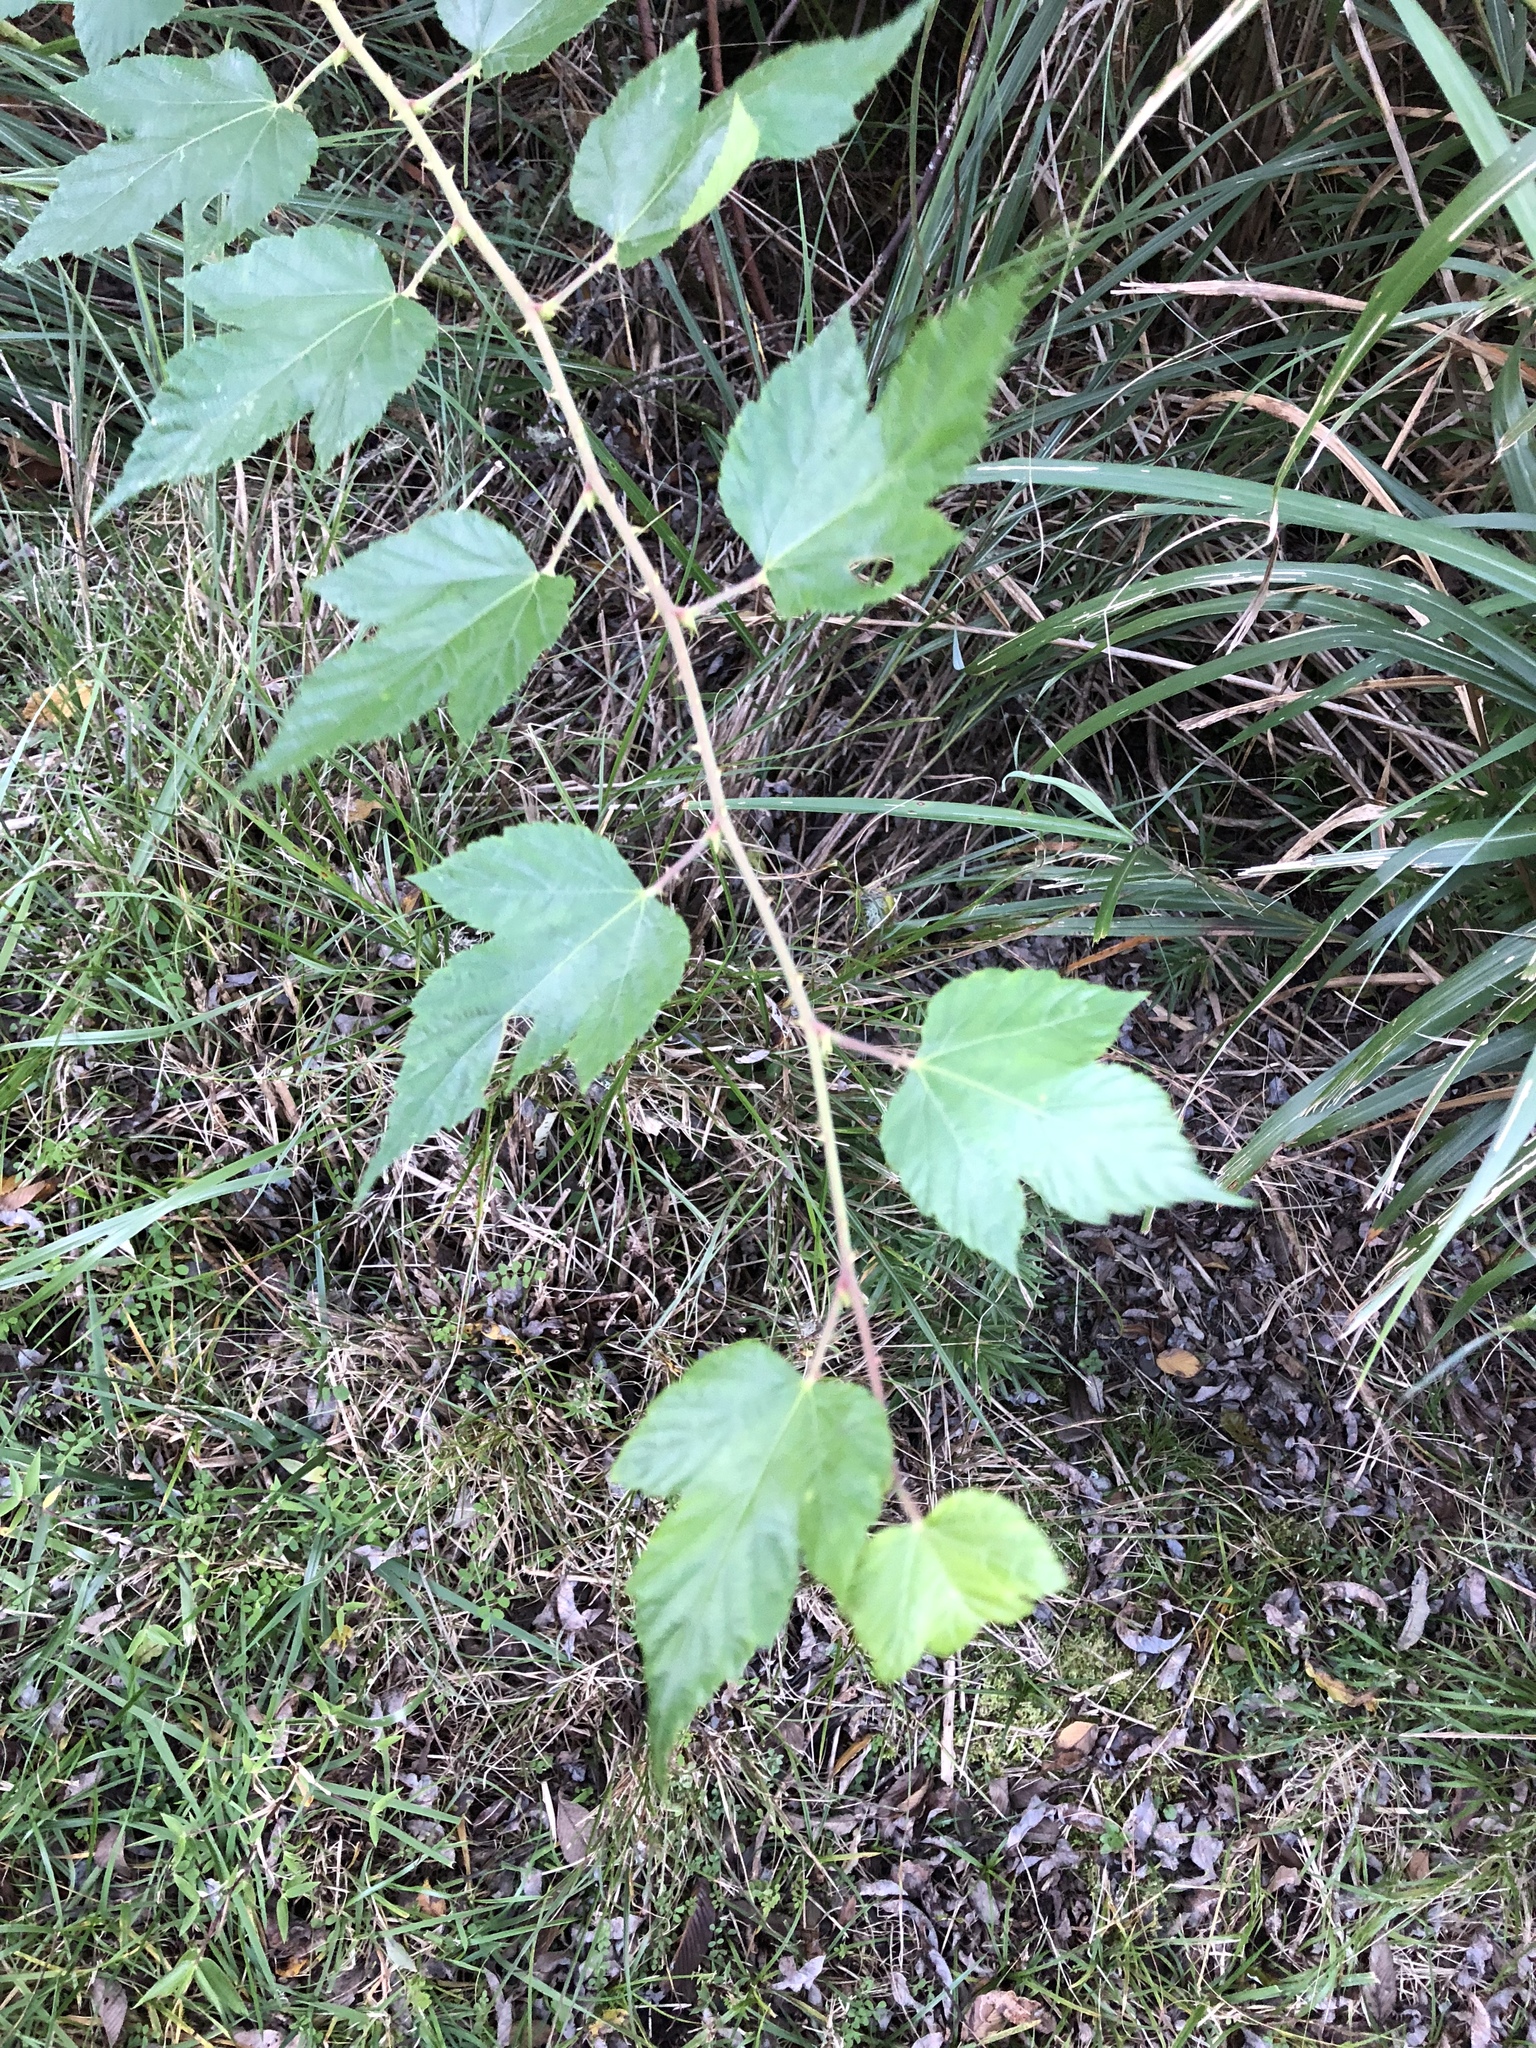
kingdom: Plantae
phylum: Tracheophyta
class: Magnoliopsida
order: Rosales
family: Rosaceae
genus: Rubus
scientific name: Rubus subcrataegifolius
